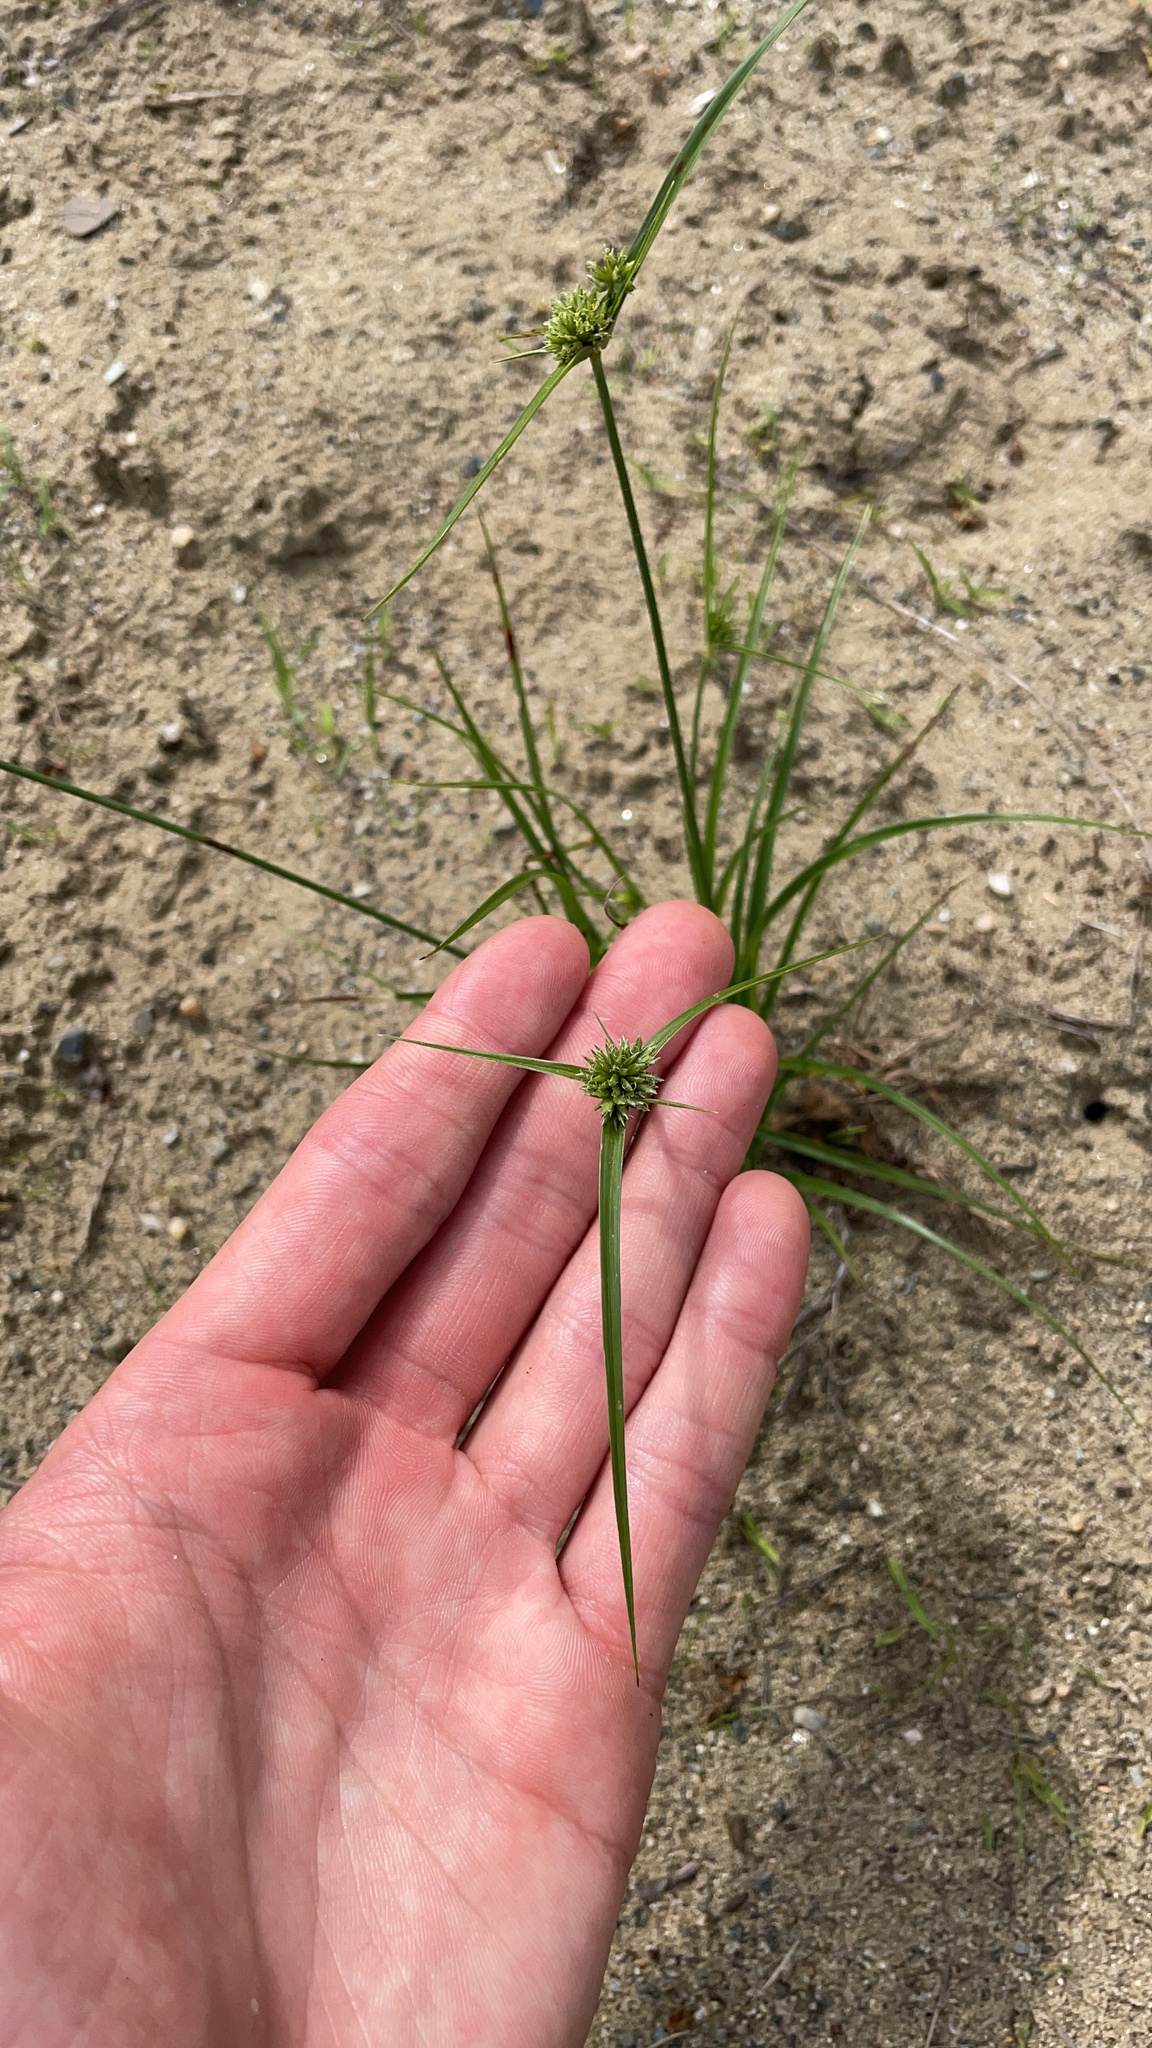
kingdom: Plantae
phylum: Tracheophyta
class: Liliopsida
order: Poales
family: Cyperaceae
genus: Cyperus
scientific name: Cyperus lupulinus
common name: Great plains flatsedge
